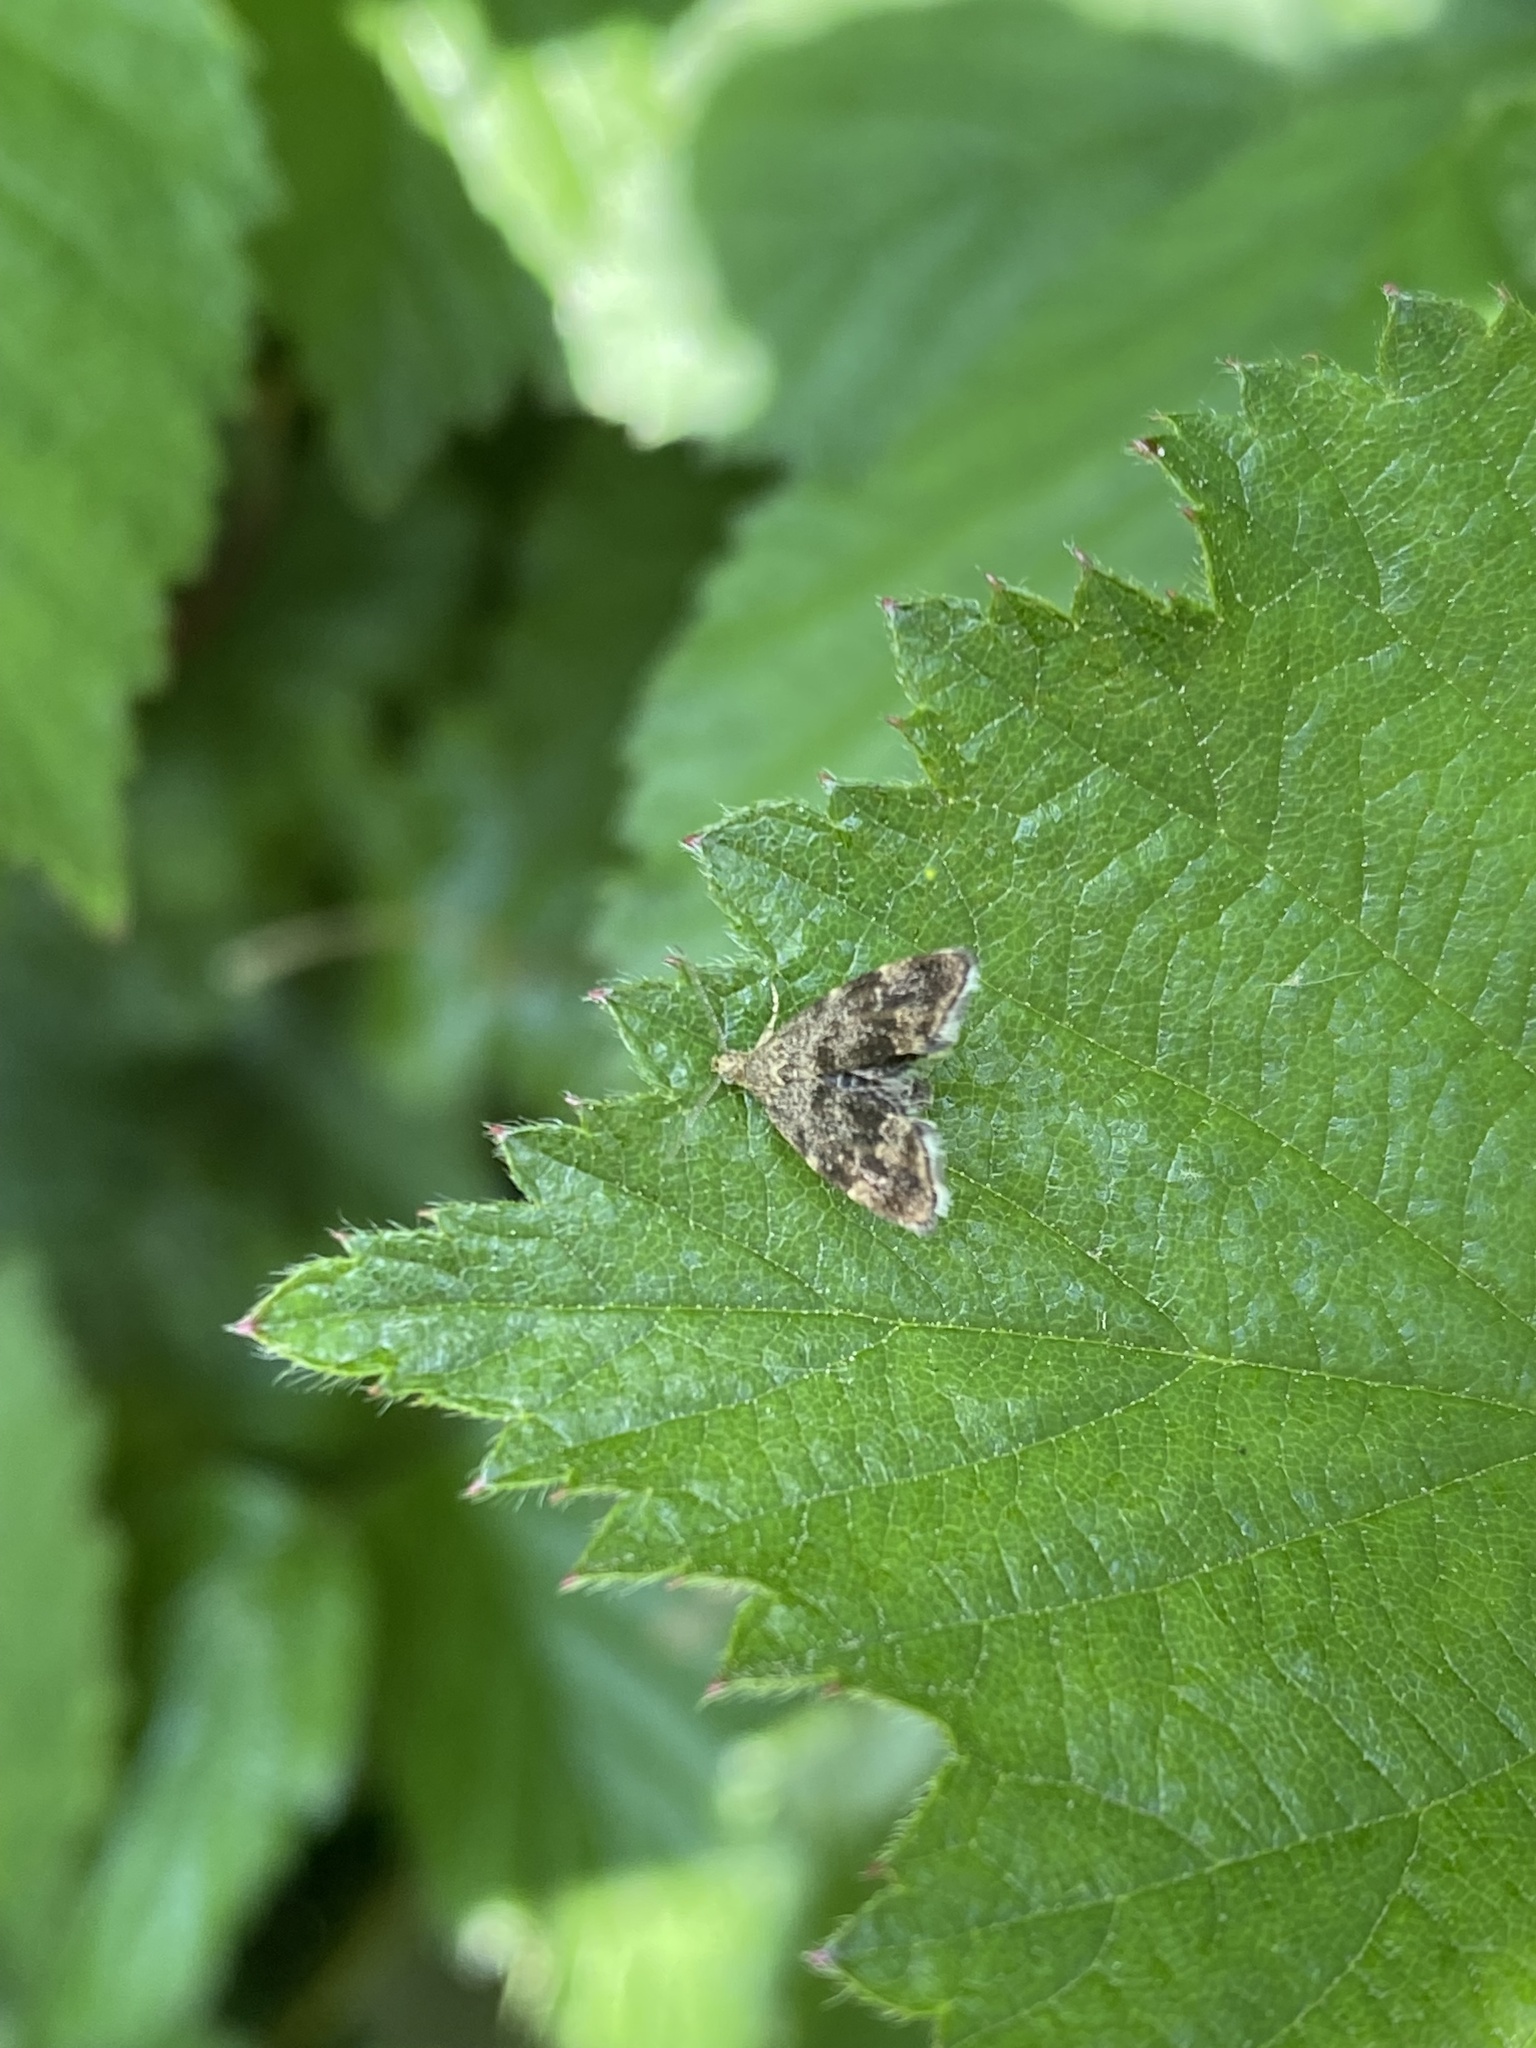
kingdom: Animalia
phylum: Arthropoda
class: Insecta
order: Lepidoptera
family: Choreutidae
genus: Anthophila
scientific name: Anthophila fabriciana
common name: Nettle-tap
